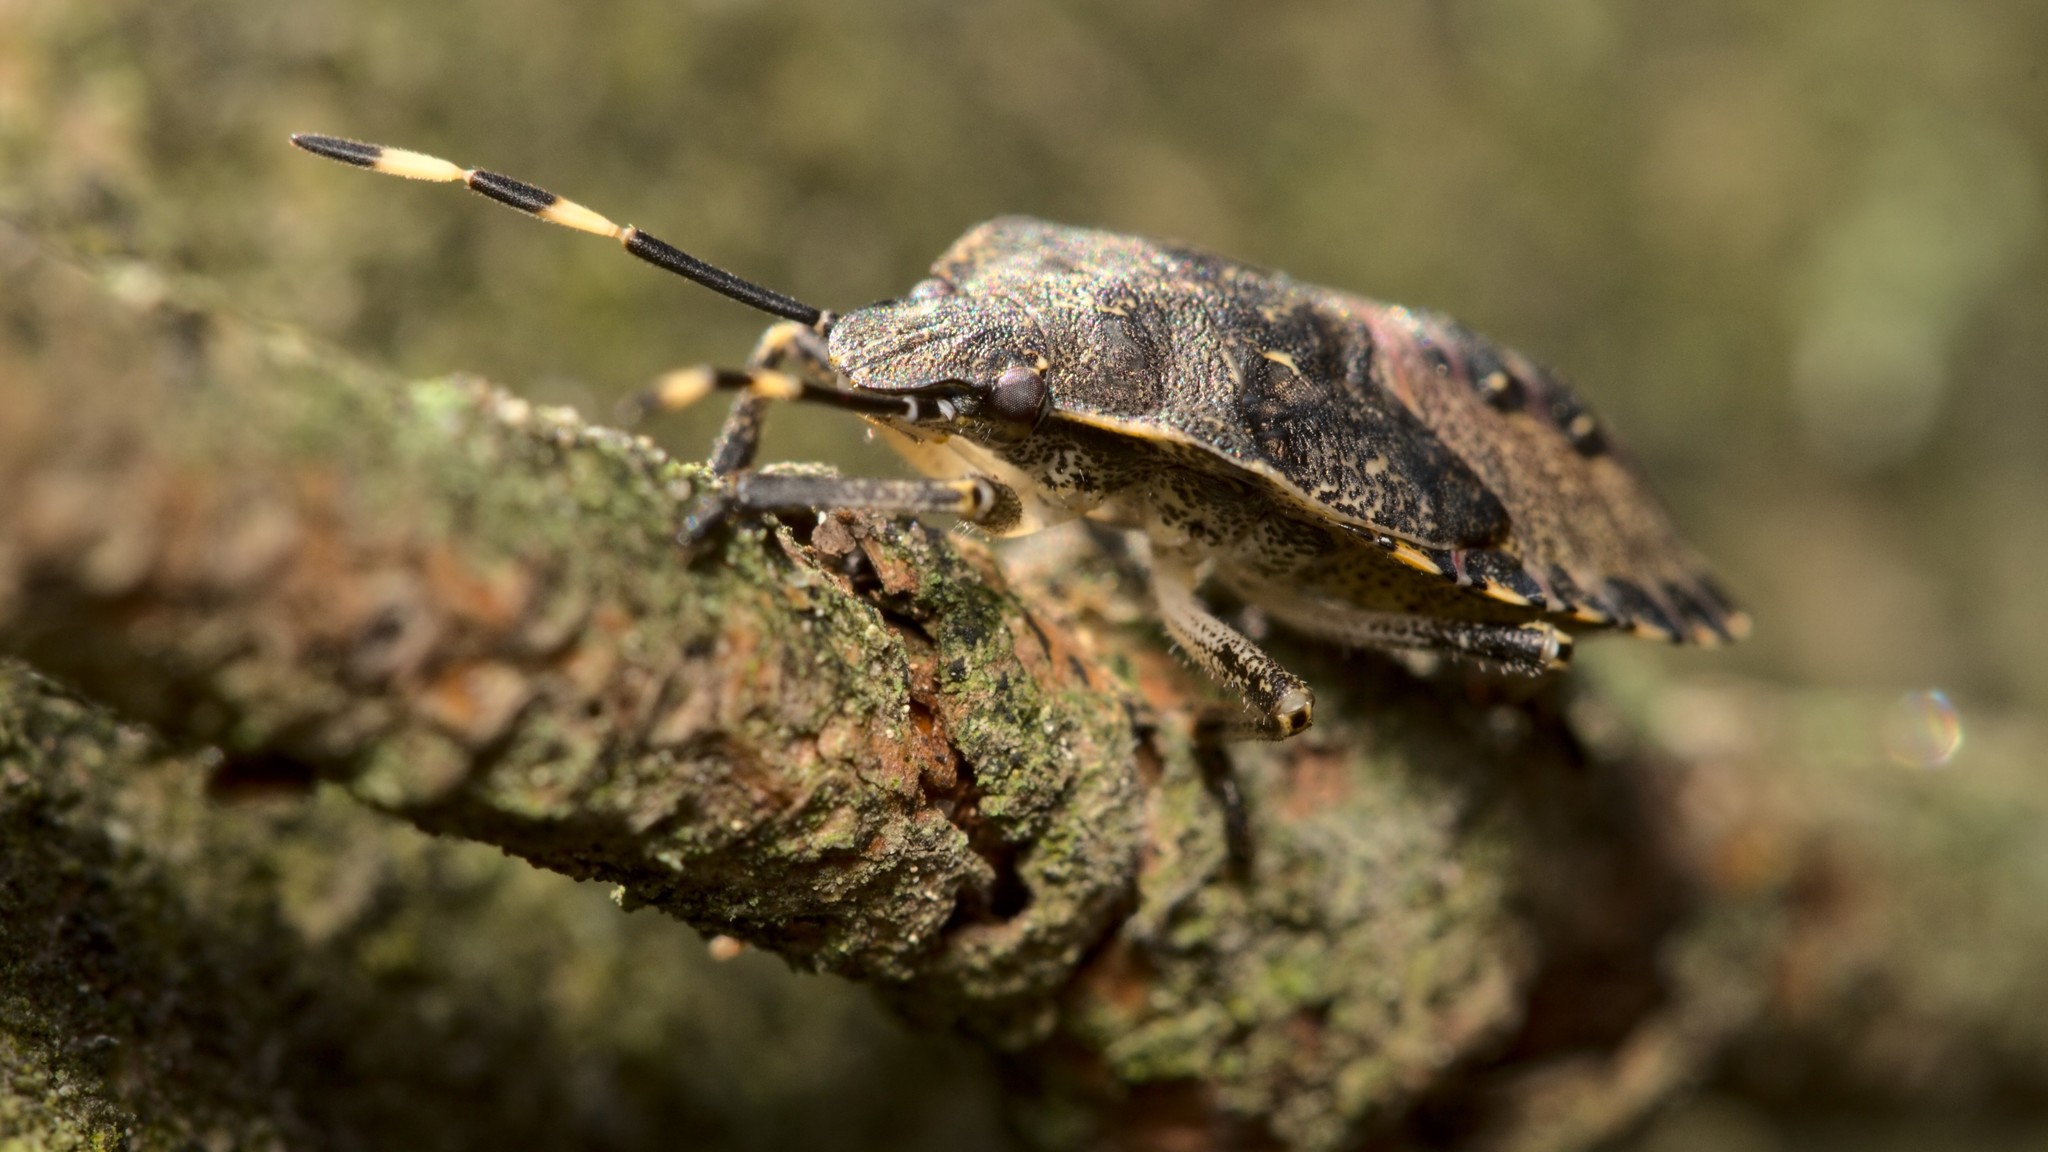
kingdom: Animalia
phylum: Arthropoda
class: Insecta
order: Hemiptera
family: Pentatomidae
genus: Rhaphigaster
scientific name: Rhaphigaster nebulosa
